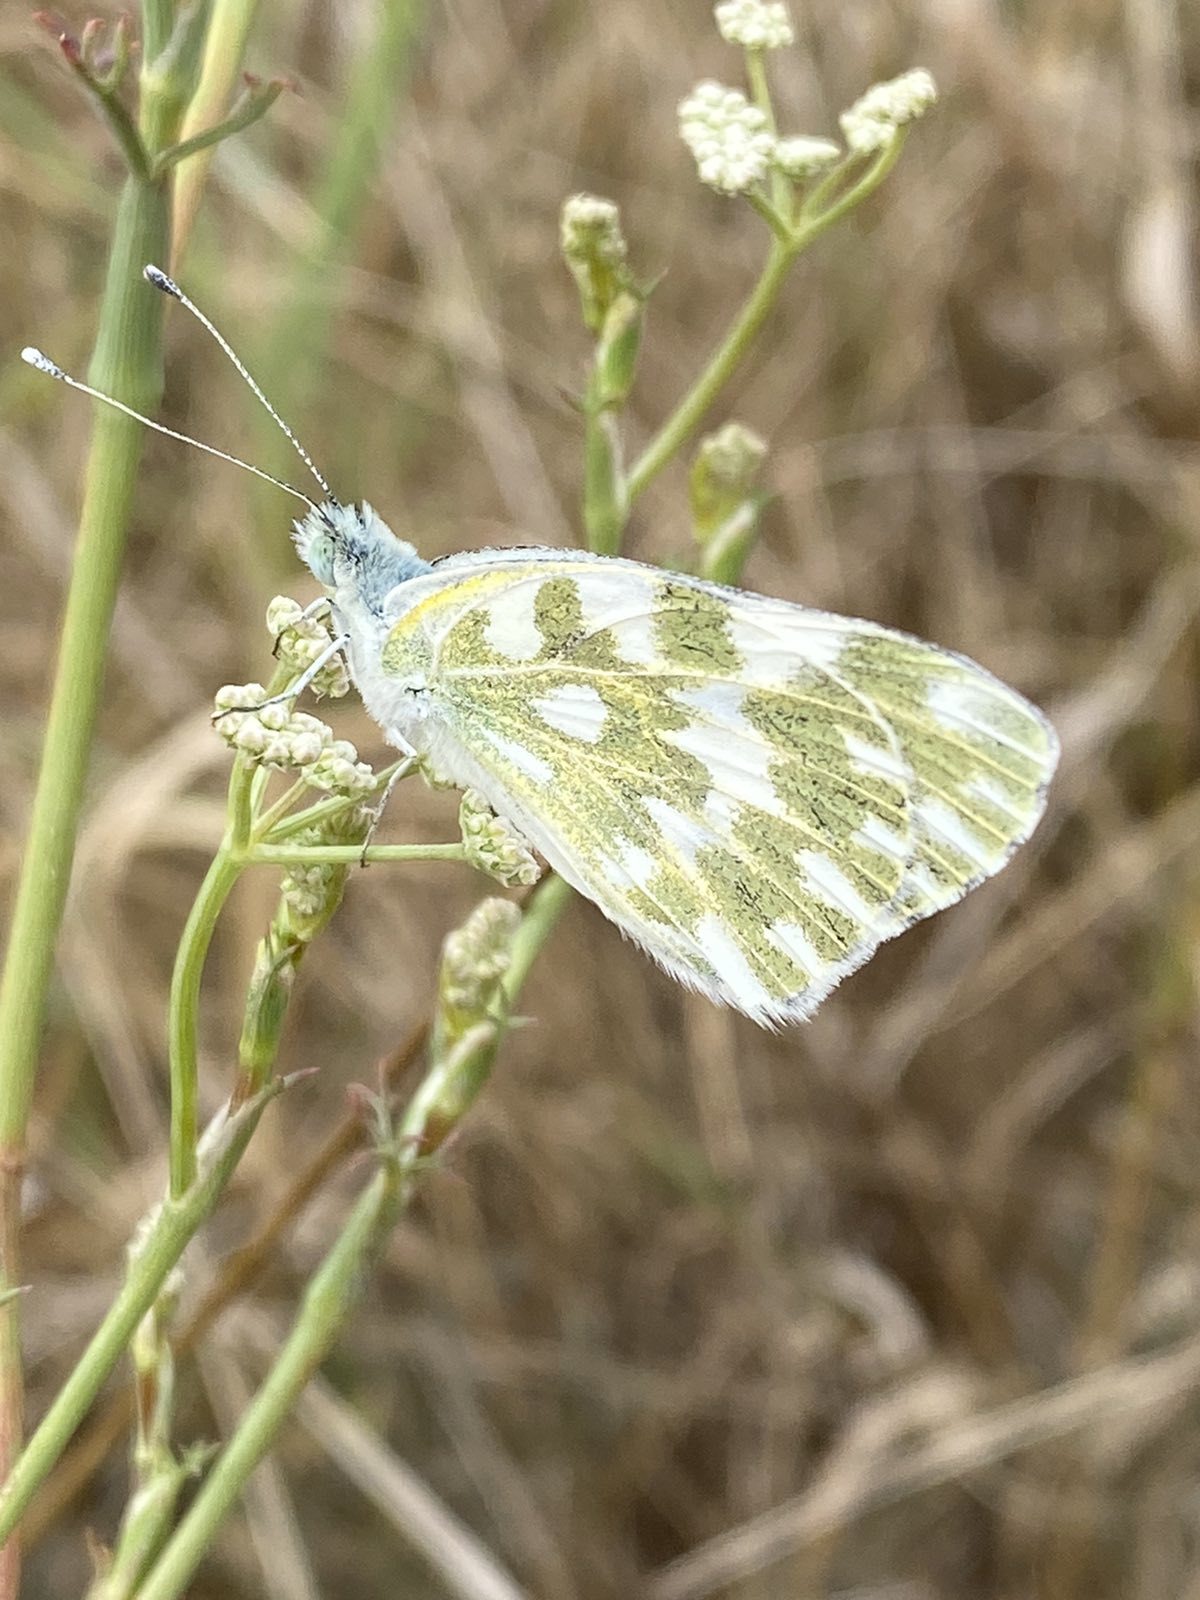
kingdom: Animalia
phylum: Arthropoda
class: Insecta
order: Lepidoptera
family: Pieridae
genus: Pontia
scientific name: Pontia edusa
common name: Eastern bath white
